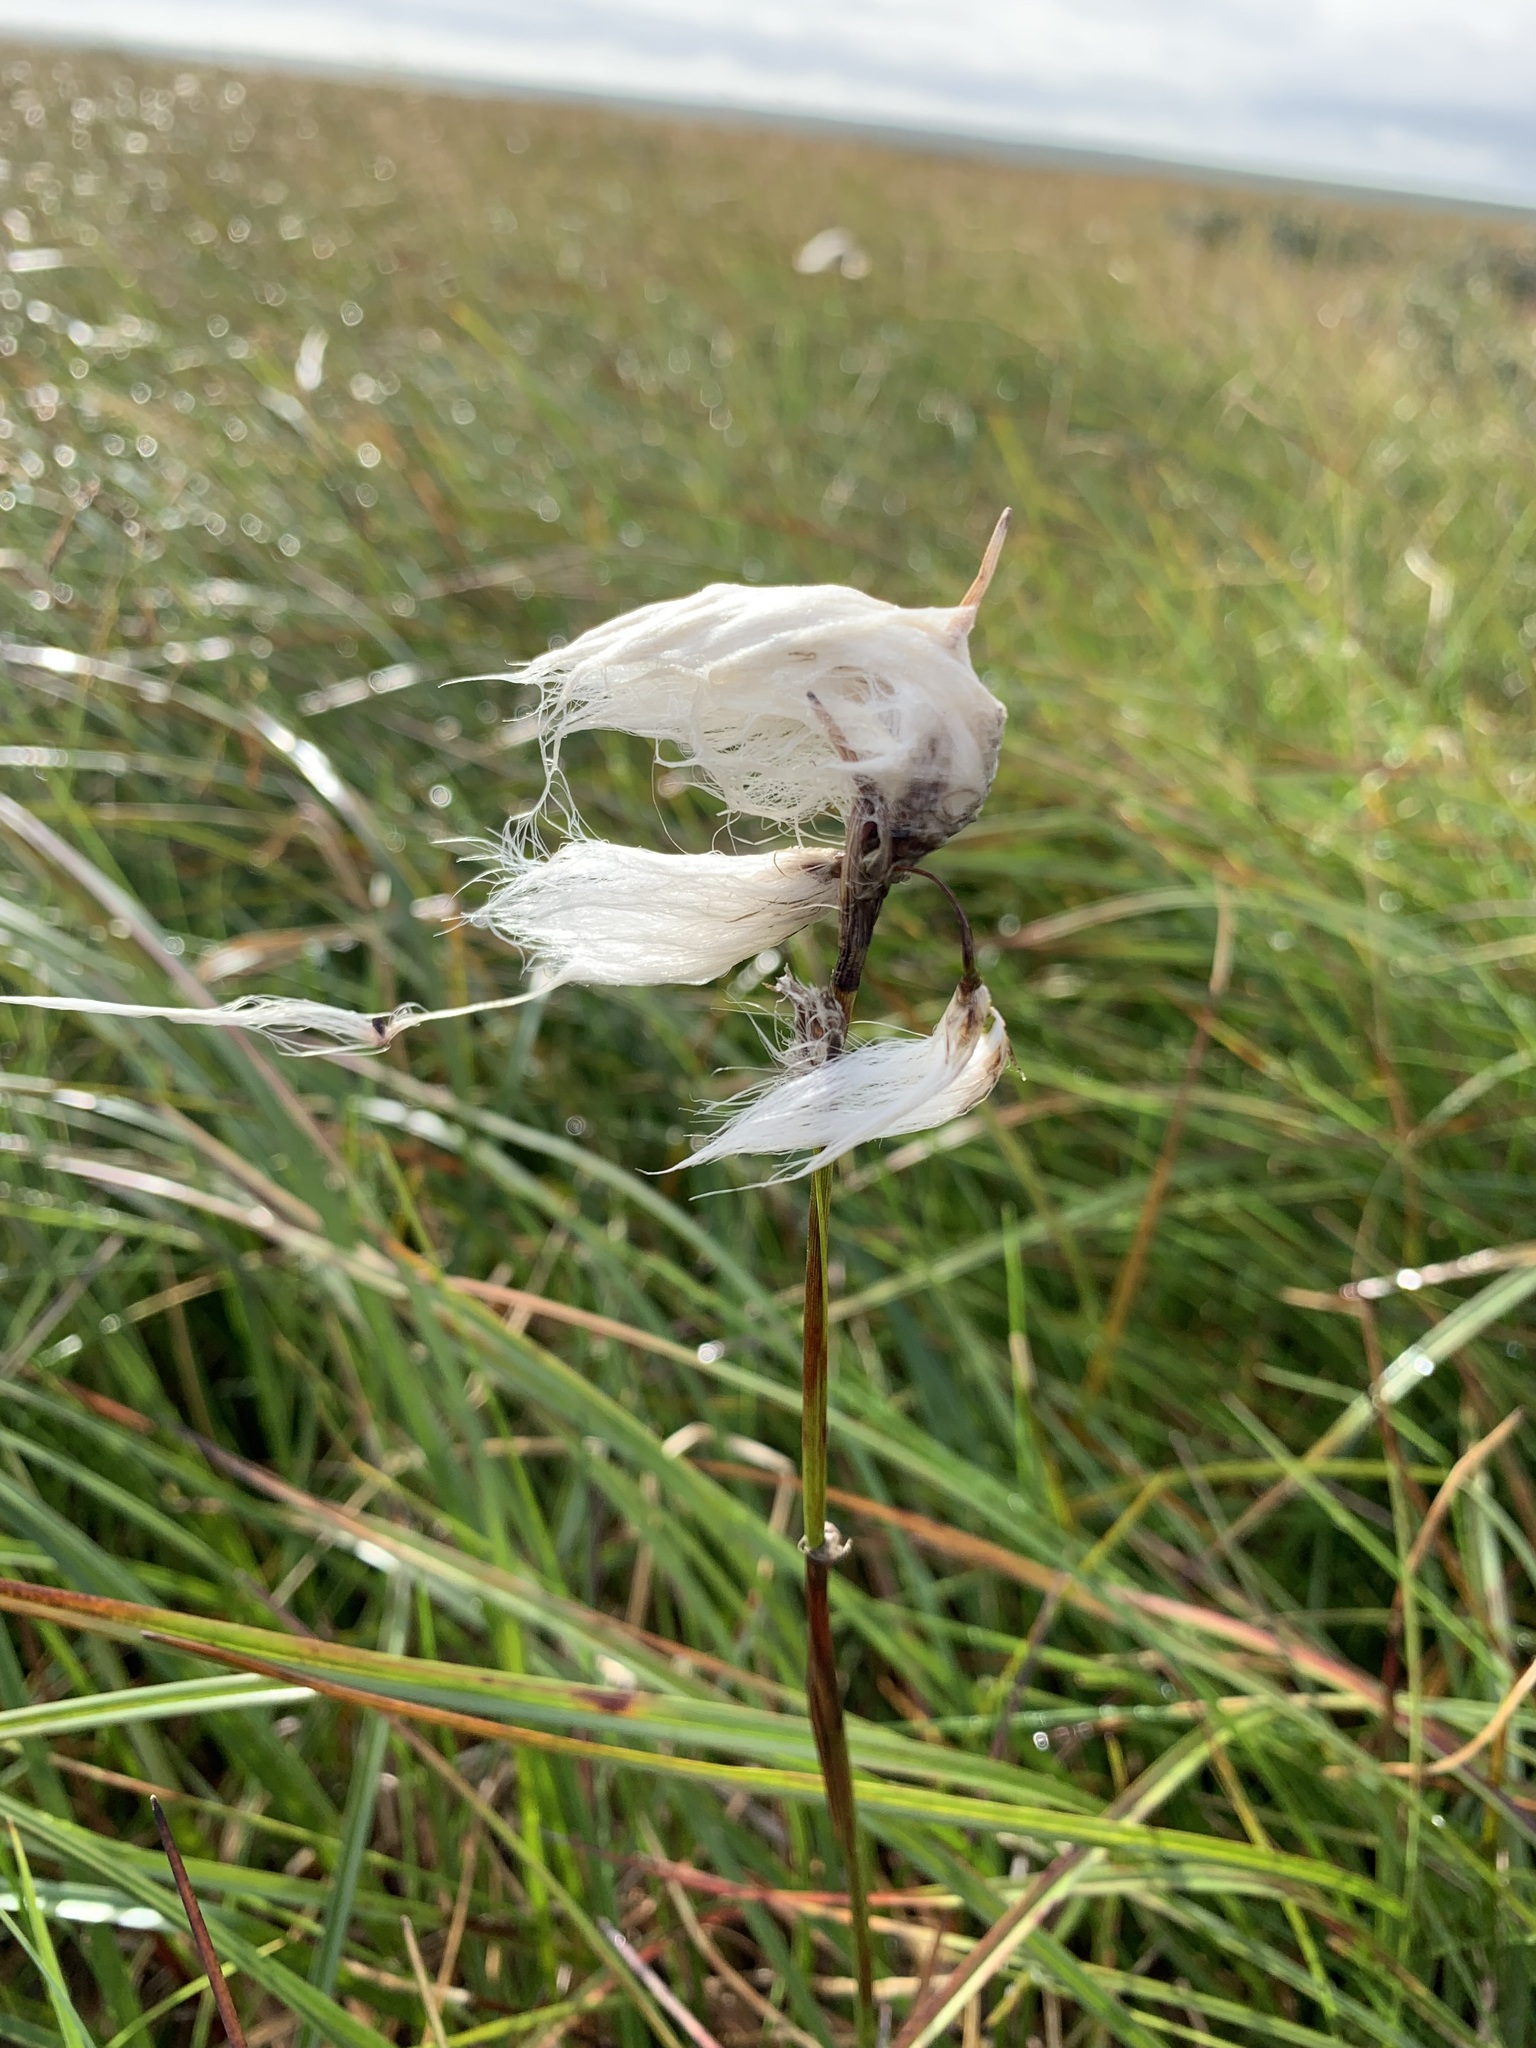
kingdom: Plantae
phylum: Tracheophyta
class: Liliopsida
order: Poales
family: Cyperaceae
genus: Eriophorum
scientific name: Eriophorum angustifolium
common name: Common cottongrass
